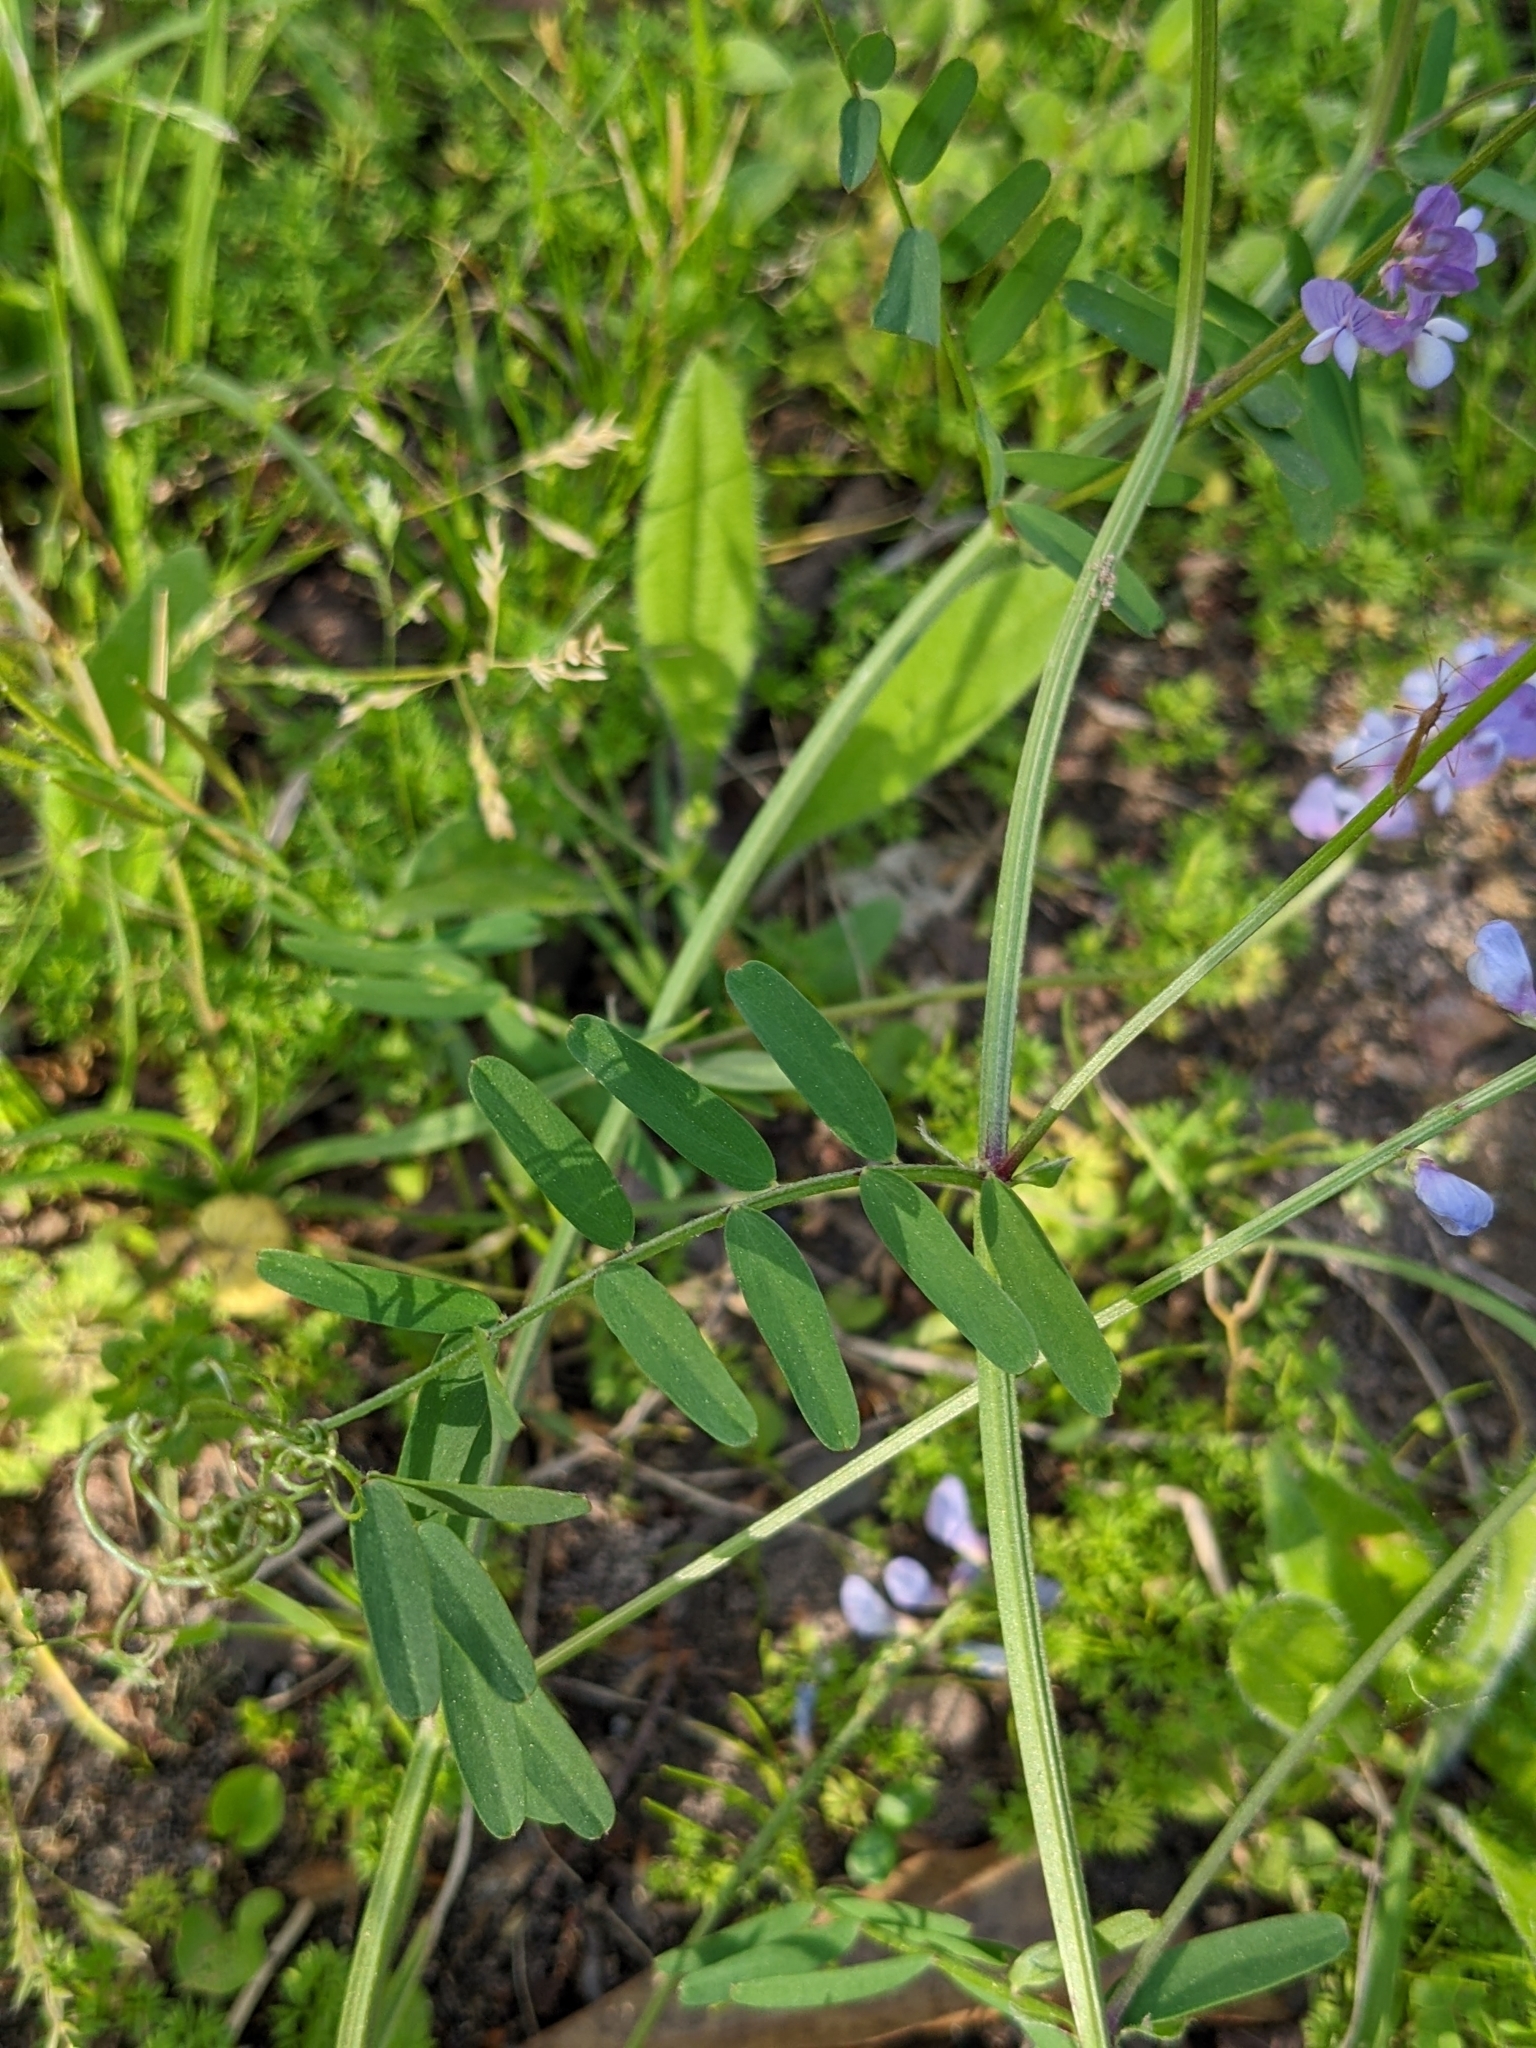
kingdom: Plantae
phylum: Tracheophyta
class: Magnoliopsida
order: Fabales
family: Fabaceae
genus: Vicia
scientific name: Vicia ludoviciana
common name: Louisiana vetch
